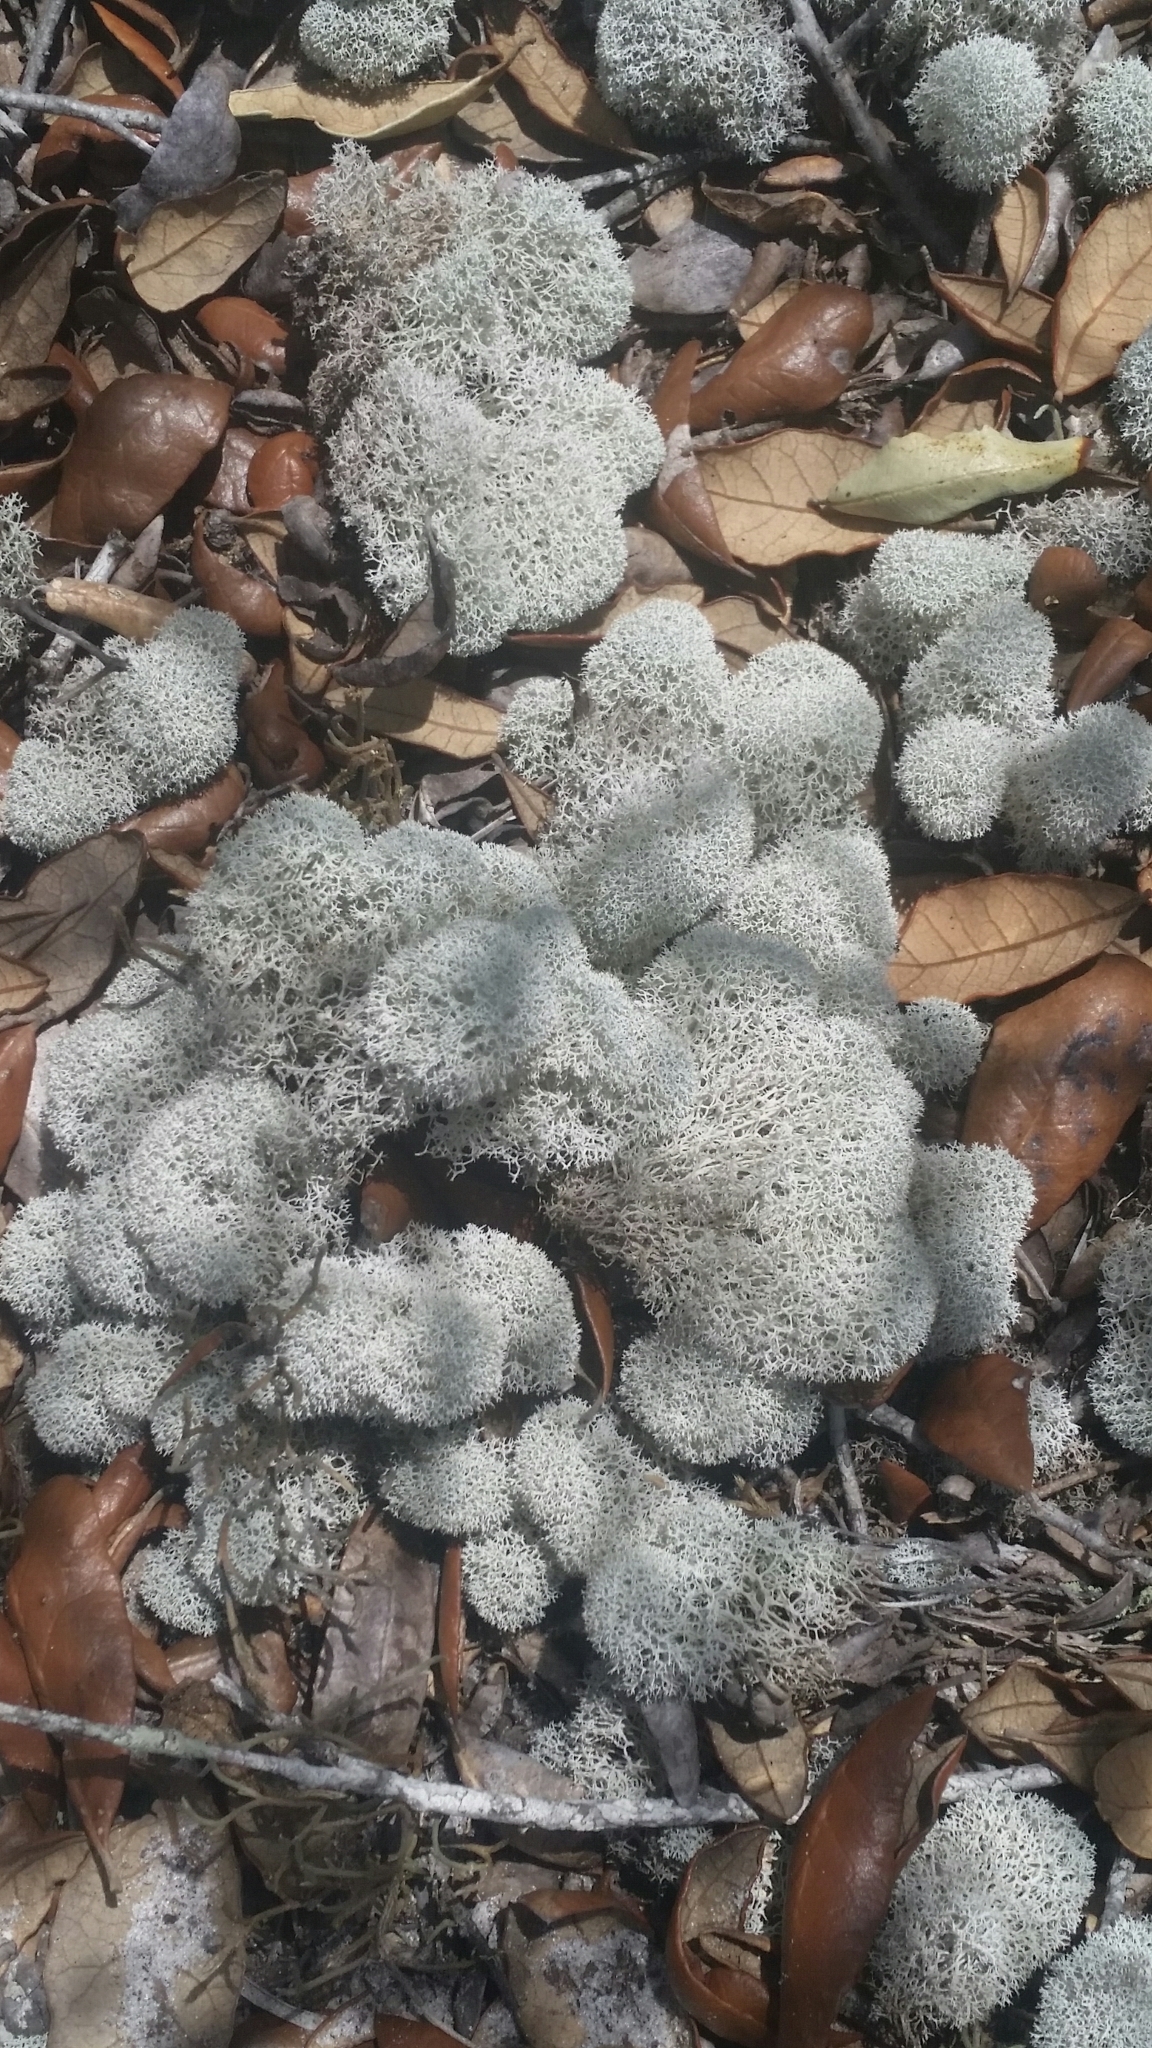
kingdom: Fungi
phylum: Ascomycota
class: Lecanoromycetes
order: Lecanorales
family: Cladoniaceae
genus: Cladonia
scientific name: Cladonia evansii
